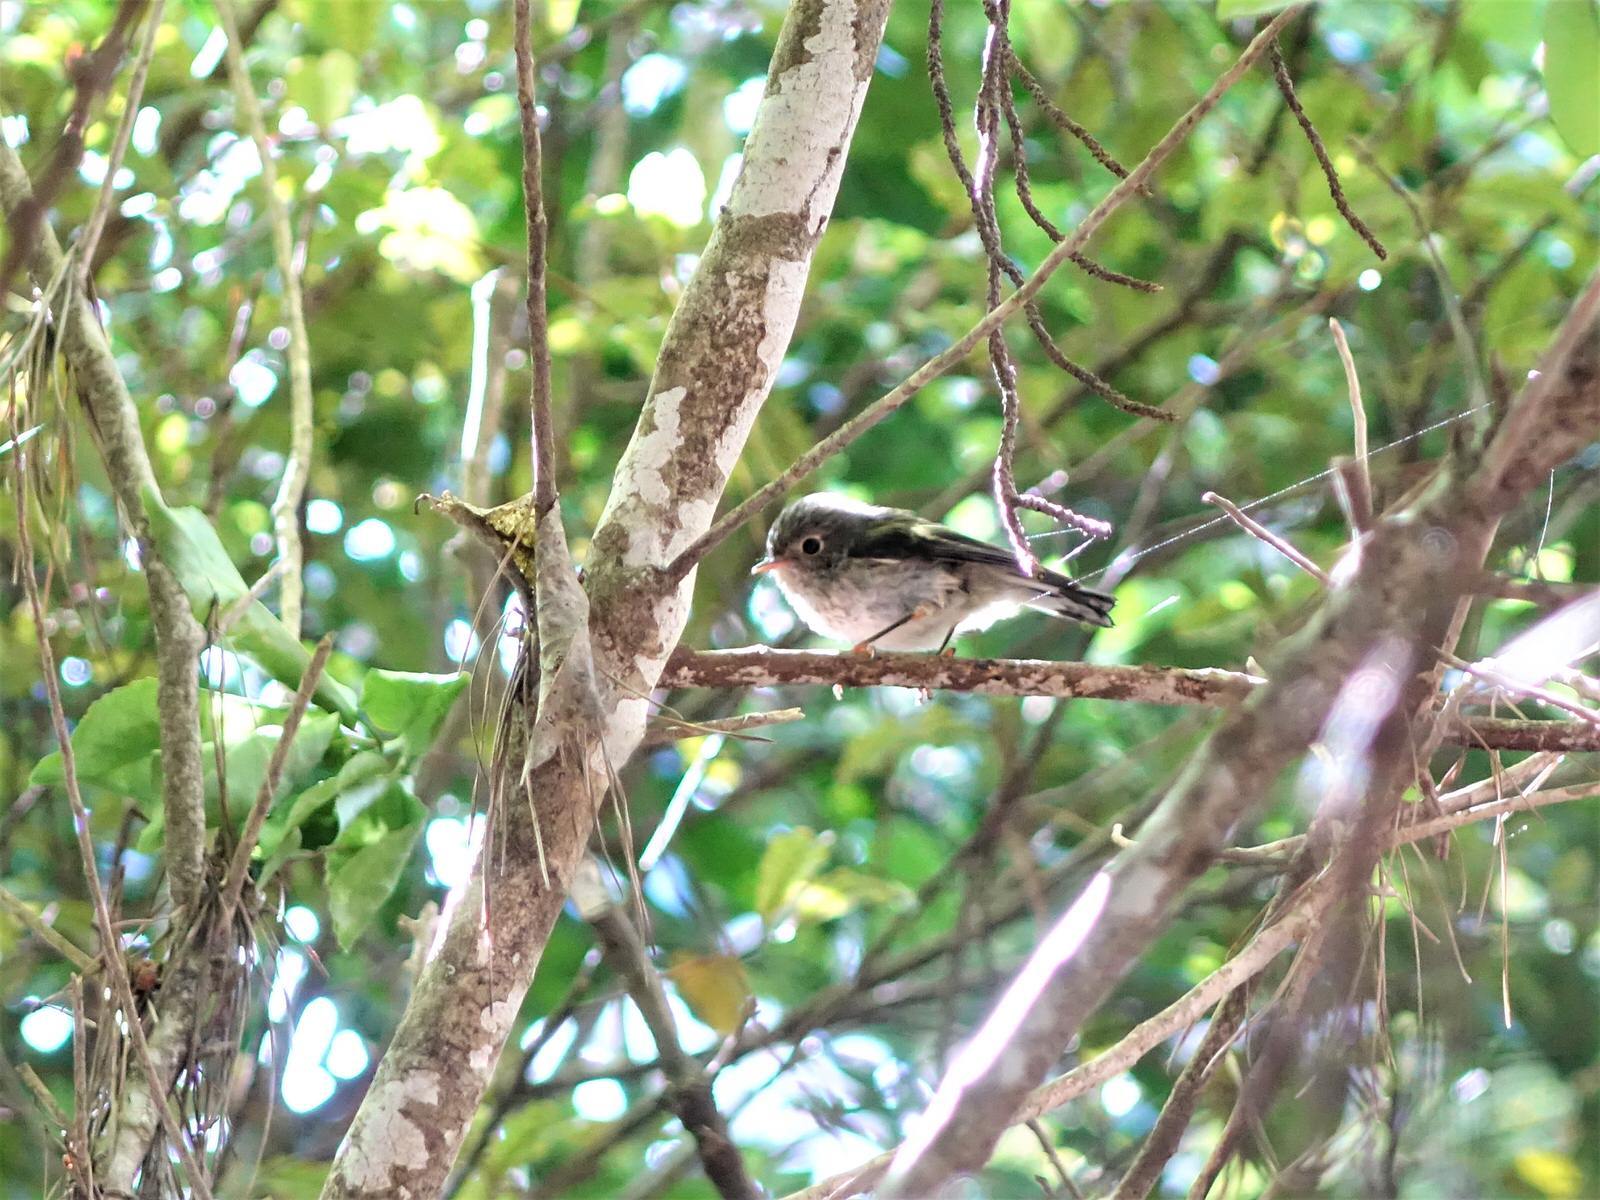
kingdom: Animalia
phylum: Chordata
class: Aves
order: Passeriformes
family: Petroicidae
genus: Petroica
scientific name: Petroica macrocephala
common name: Tomtit
